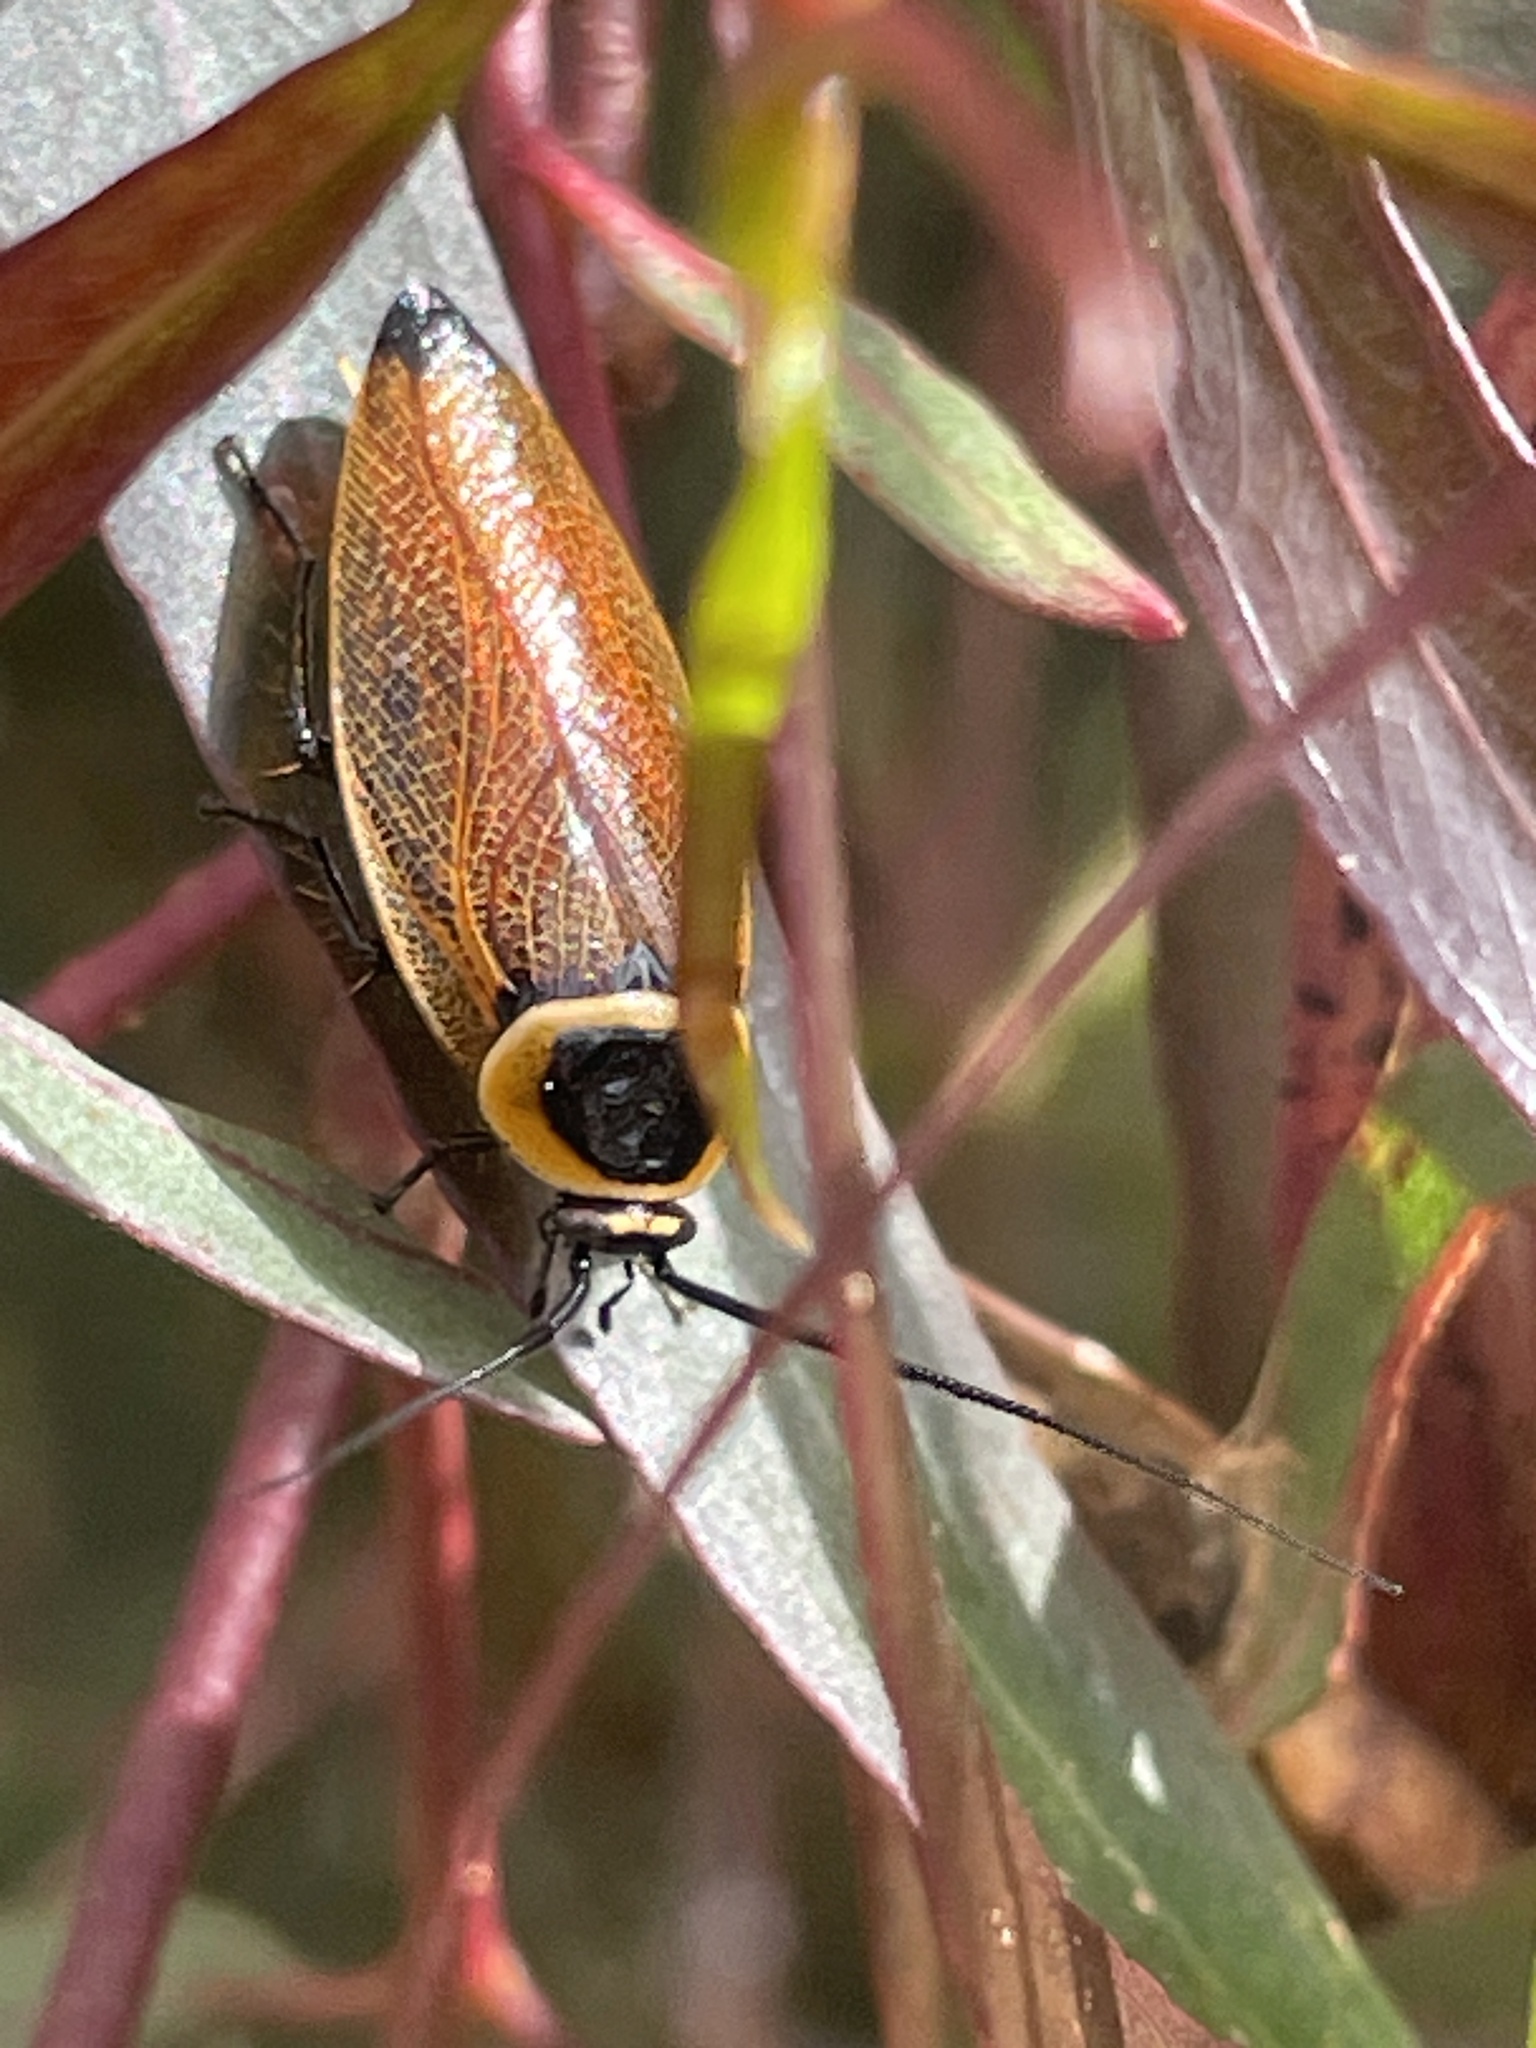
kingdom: Animalia
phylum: Arthropoda
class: Insecta
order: Blattodea
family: Ectobiidae
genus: Ellipsidion
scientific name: Ellipsidion australe
